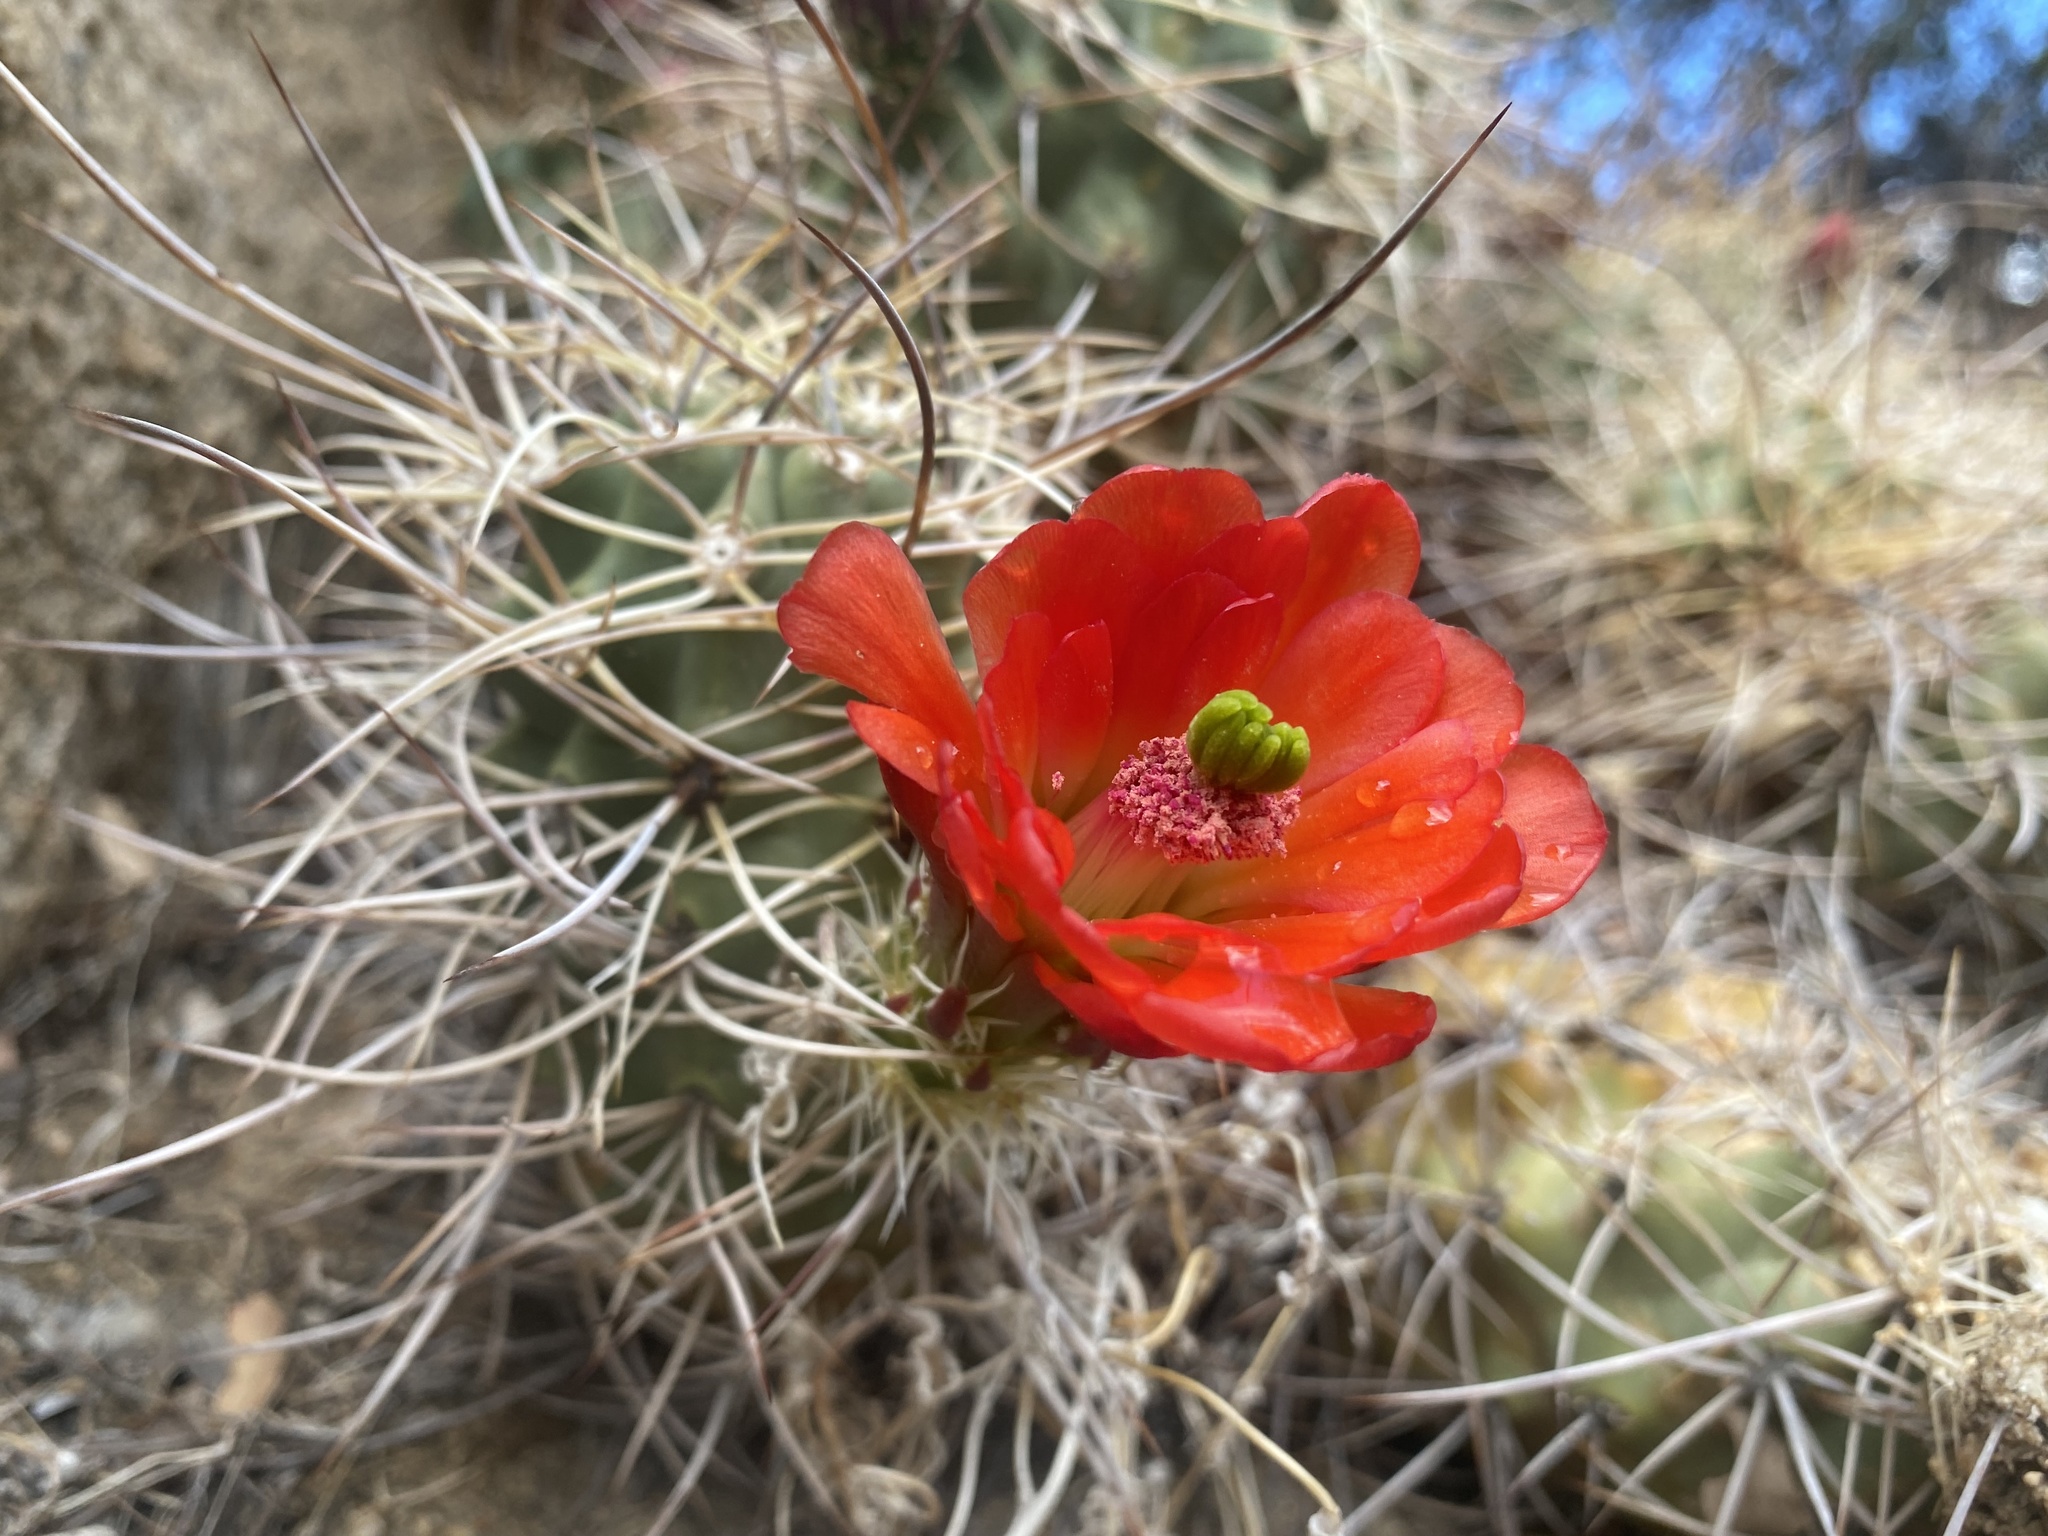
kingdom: Plantae
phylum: Tracheophyta
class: Magnoliopsida
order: Caryophyllales
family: Cactaceae
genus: Echinocereus
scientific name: Echinocereus triglochidiatus
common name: Claretcup hedgehog
